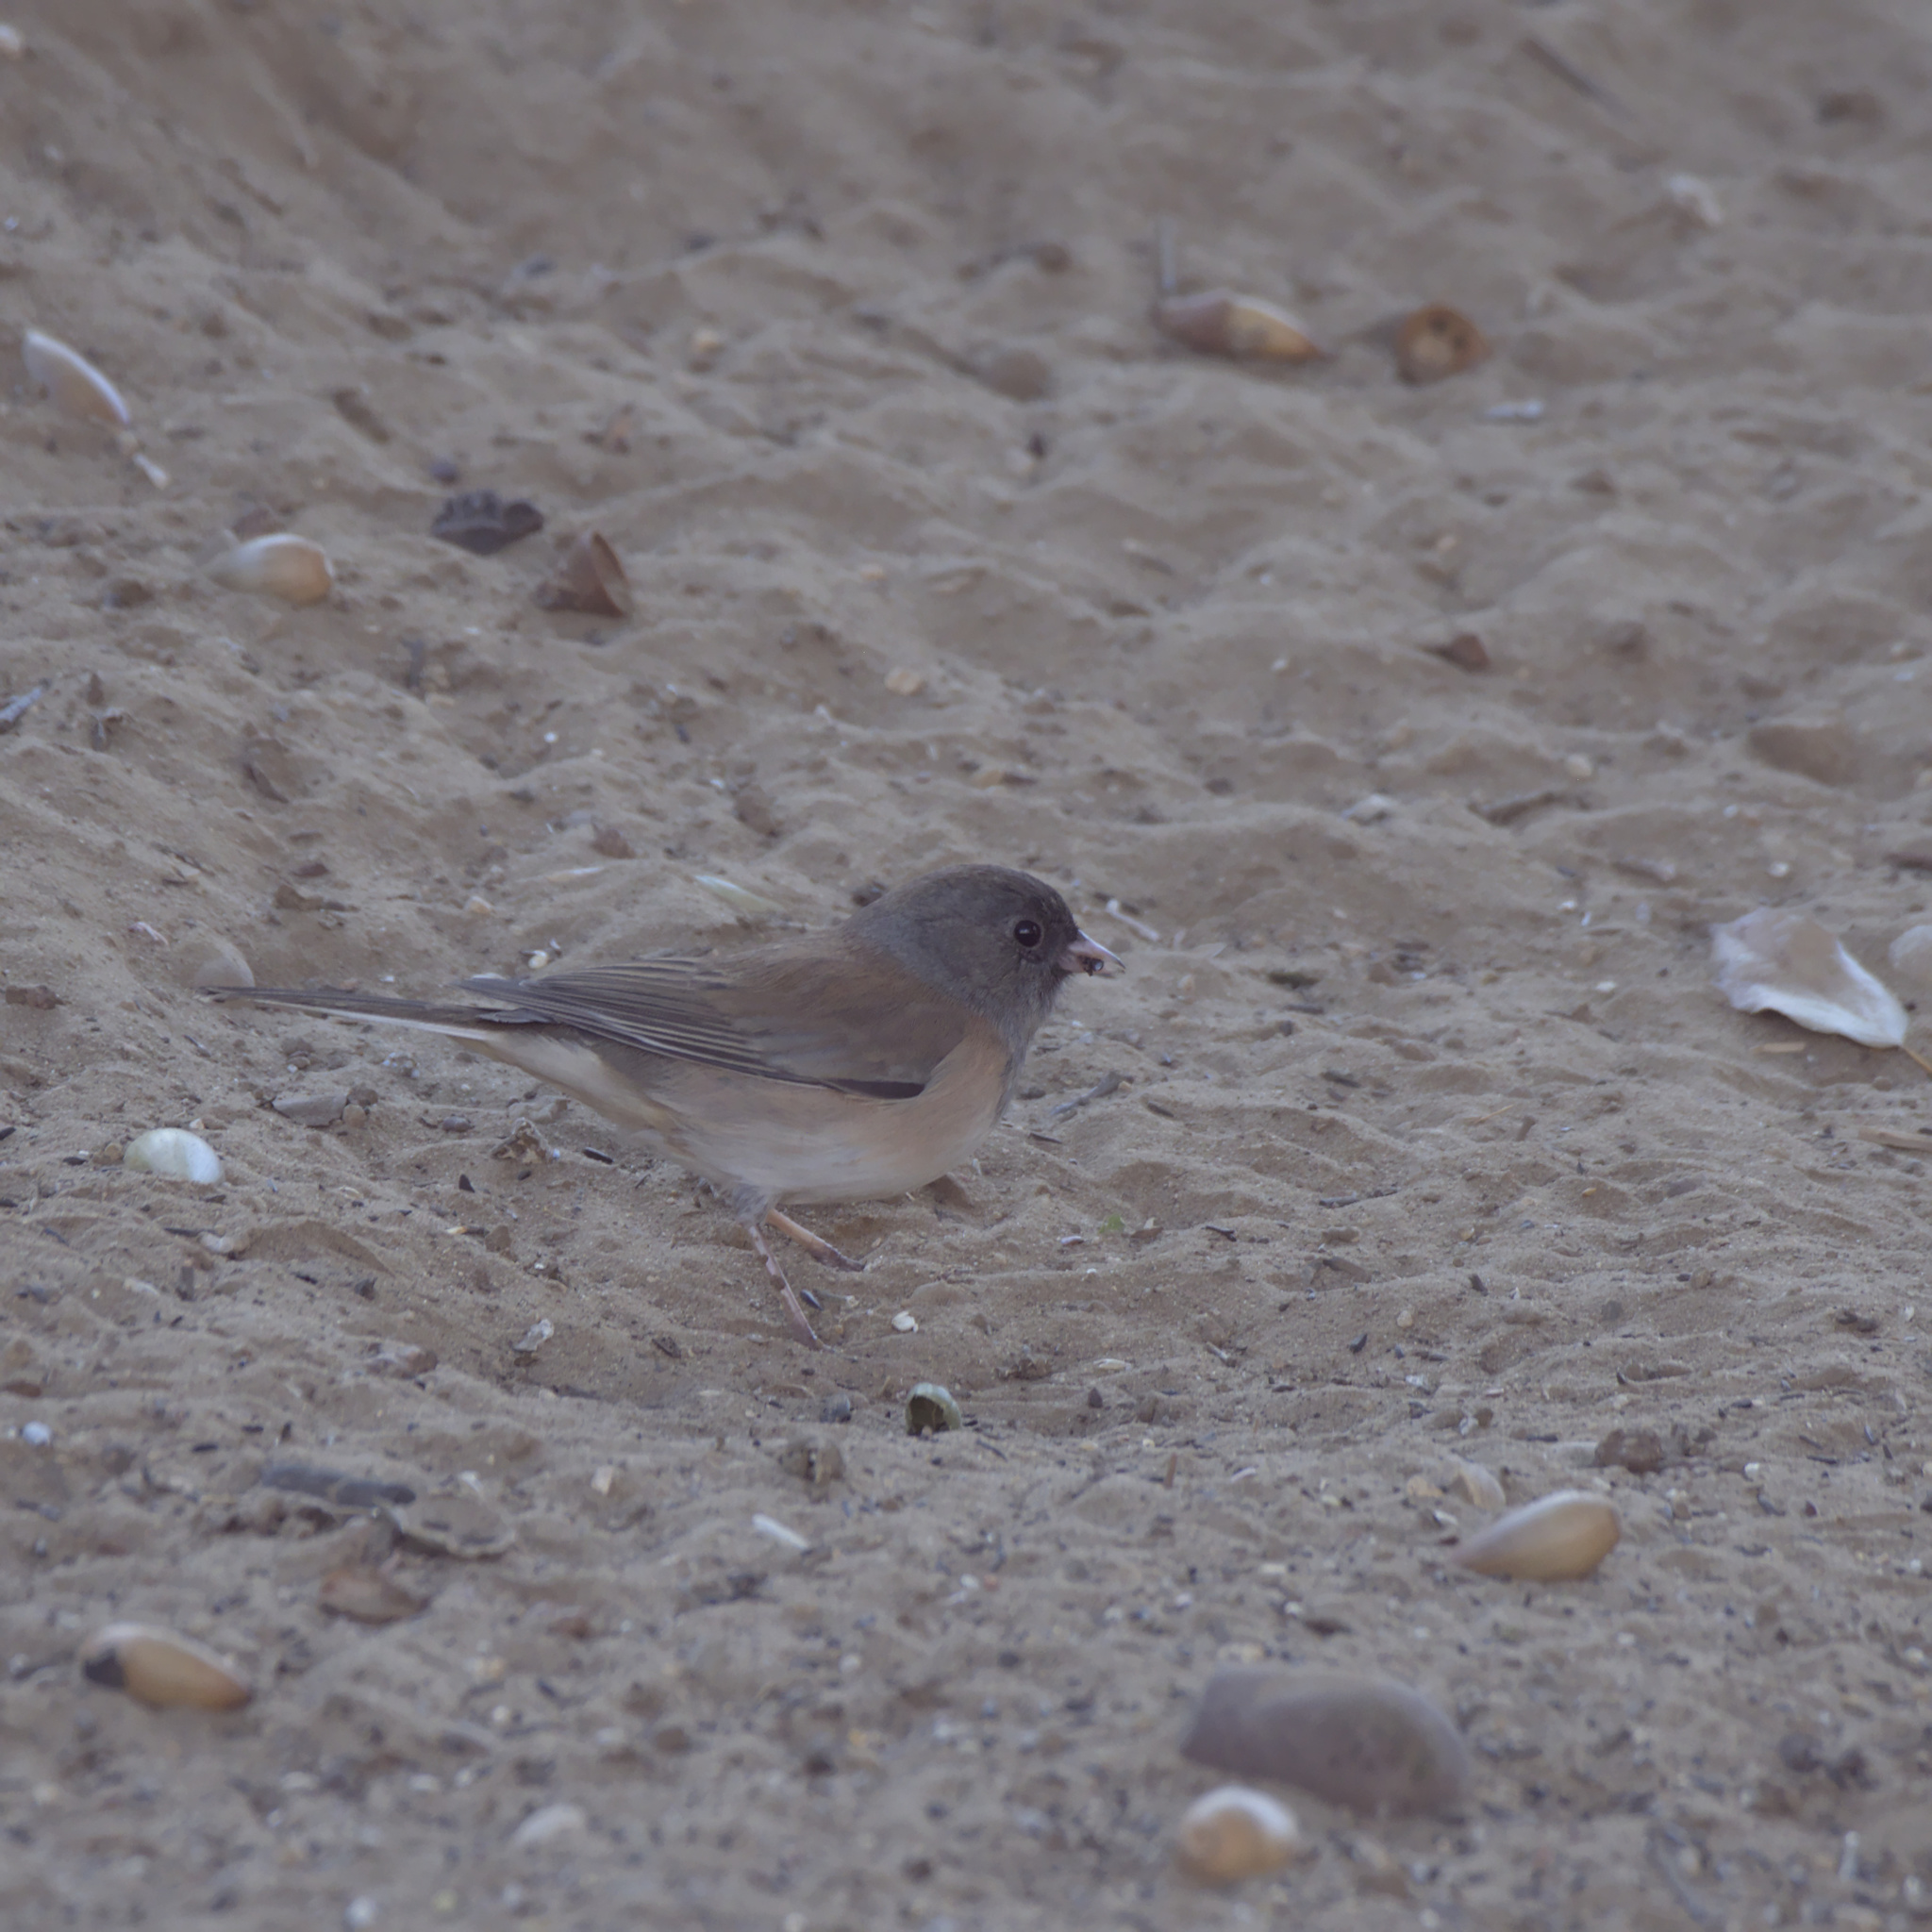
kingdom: Animalia
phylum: Chordata
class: Aves
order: Passeriformes
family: Passerellidae
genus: Junco
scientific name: Junco hyemalis
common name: Dark-eyed junco
